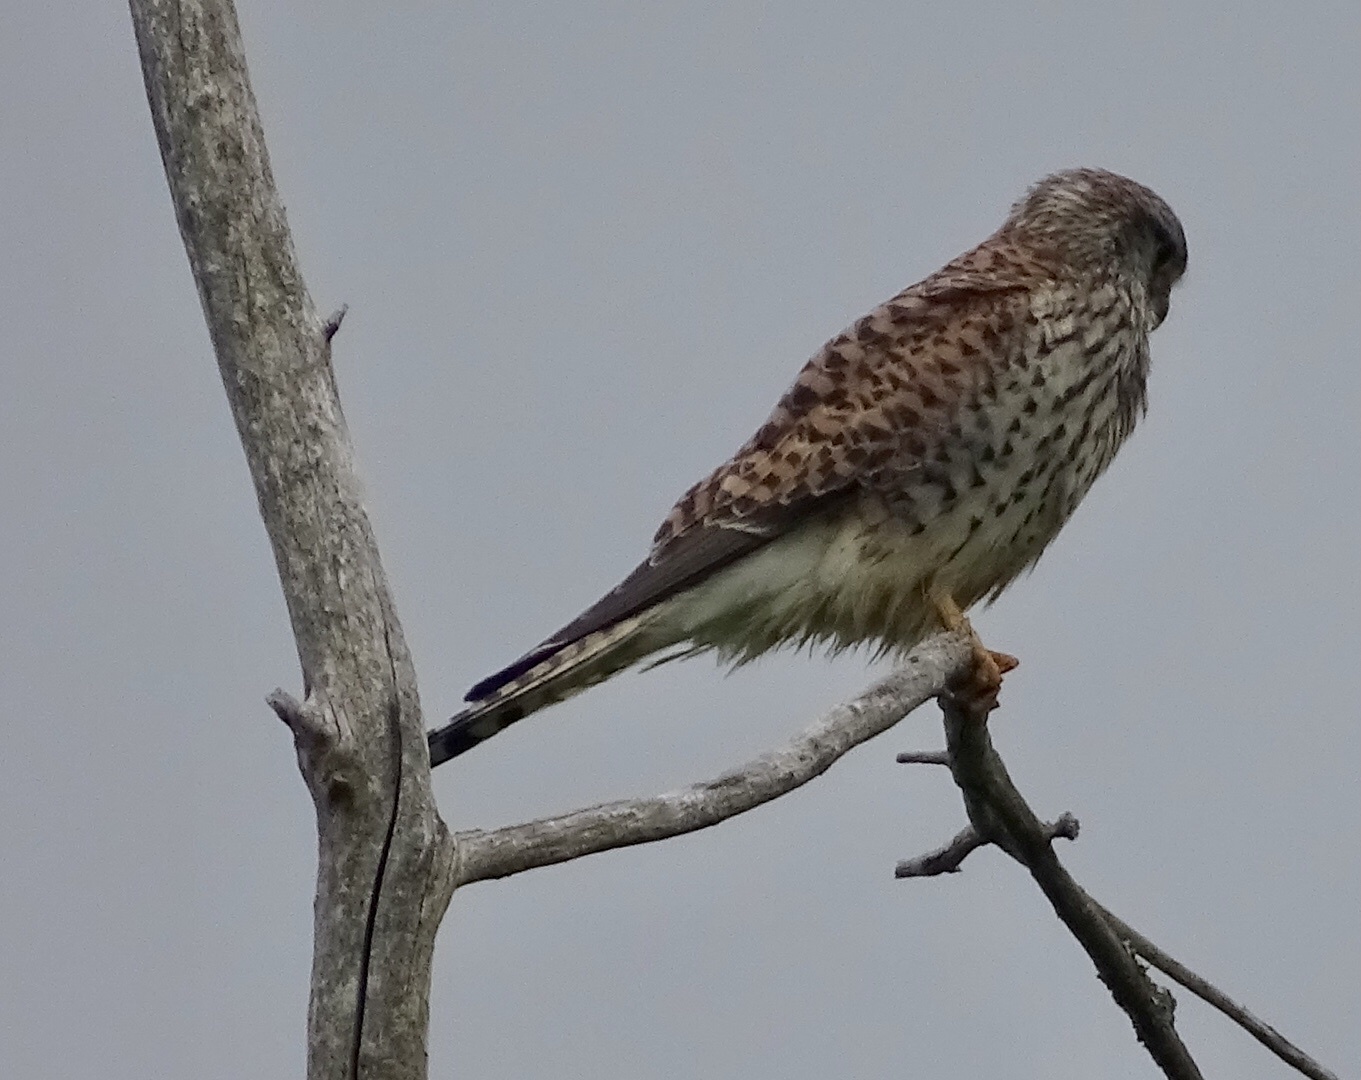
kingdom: Animalia
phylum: Chordata
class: Aves
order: Falconiformes
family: Falconidae
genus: Falco
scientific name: Falco tinnunculus
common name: Common kestrel
